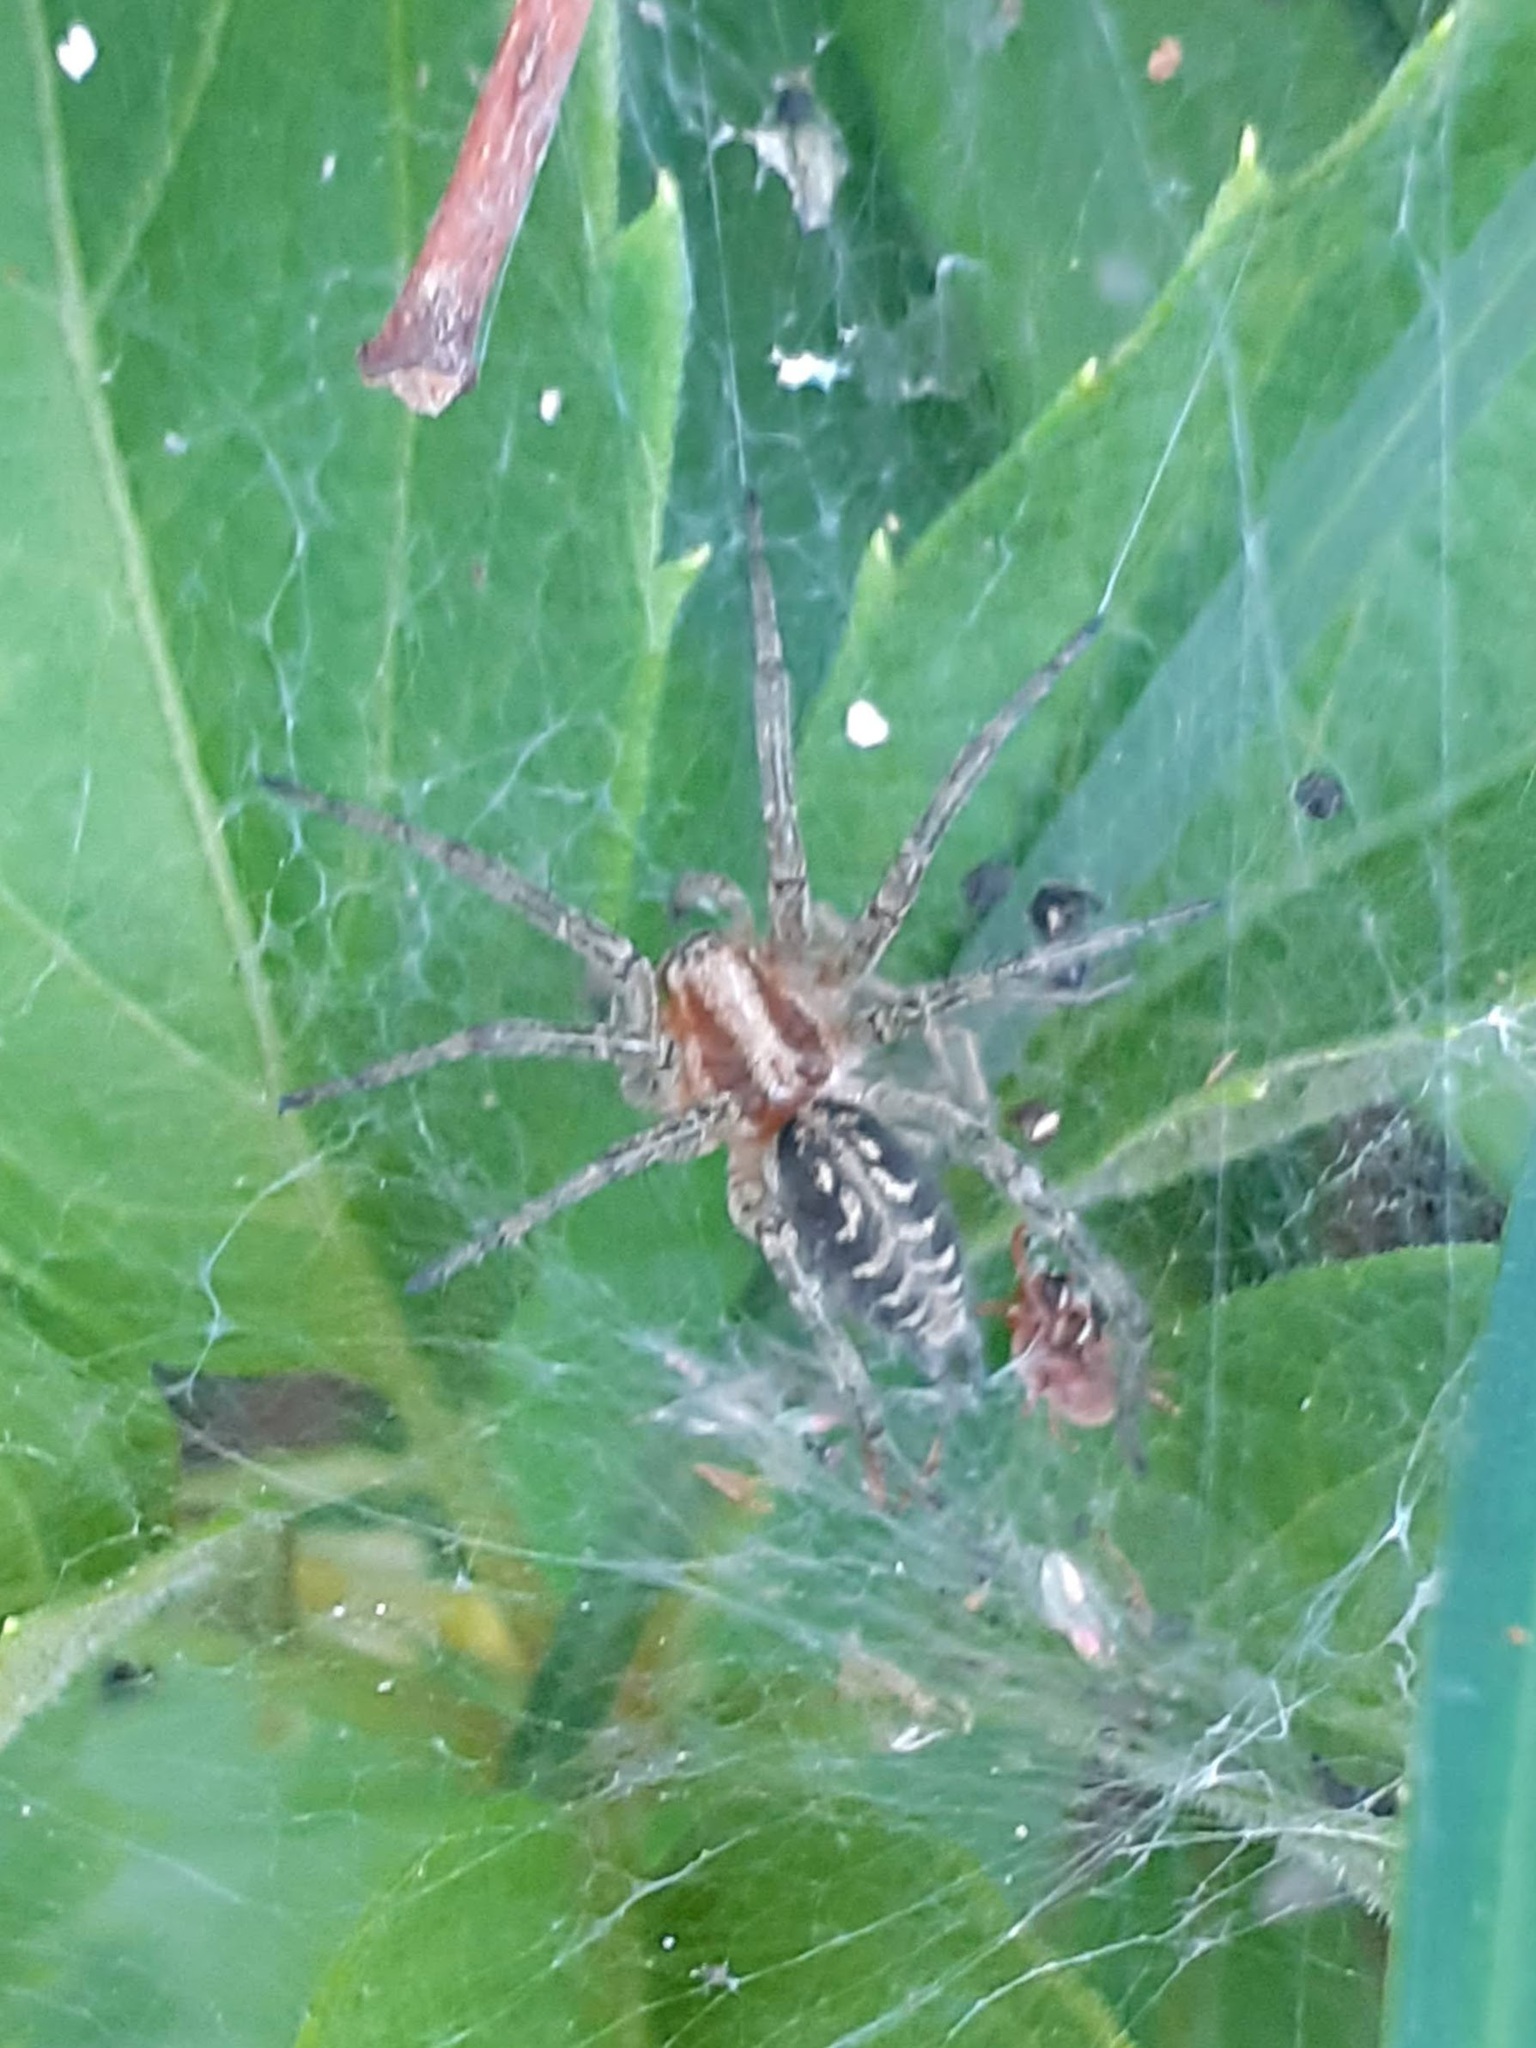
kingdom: Animalia
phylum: Arthropoda
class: Arachnida
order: Araneae
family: Agelenidae
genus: Agelena
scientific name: Agelena labyrinthica
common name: Labyrinth spider
